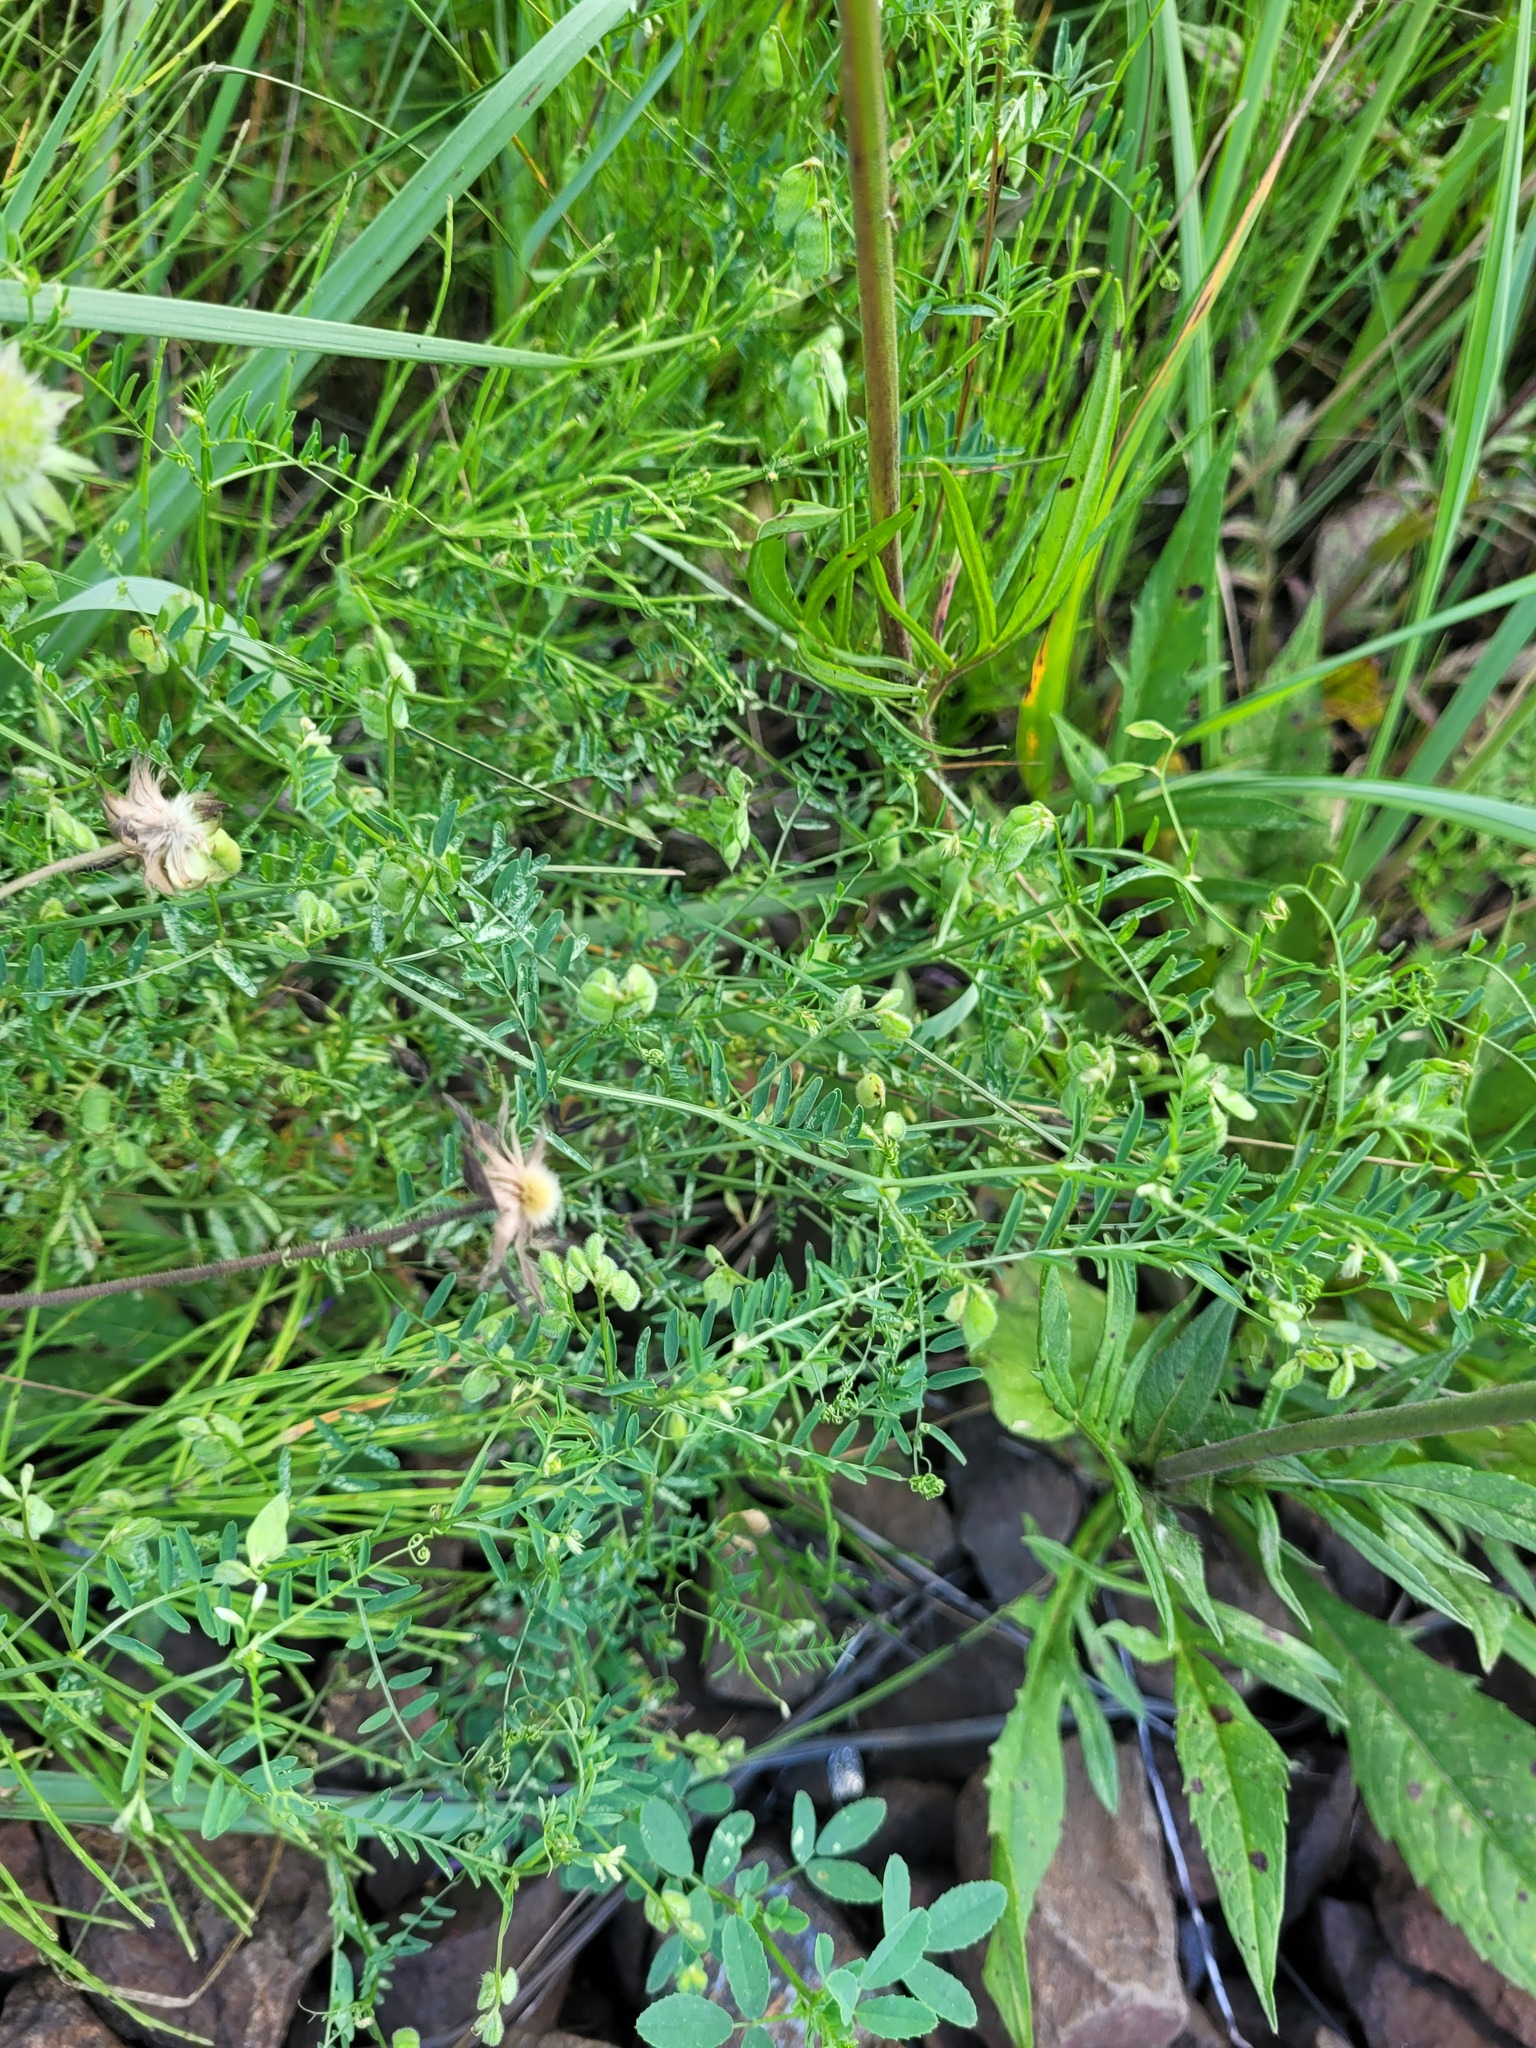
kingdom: Plantae
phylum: Tracheophyta
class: Magnoliopsida
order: Fabales
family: Fabaceae
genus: Vicia
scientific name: Vicia hirsuta
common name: Tiny vetch
